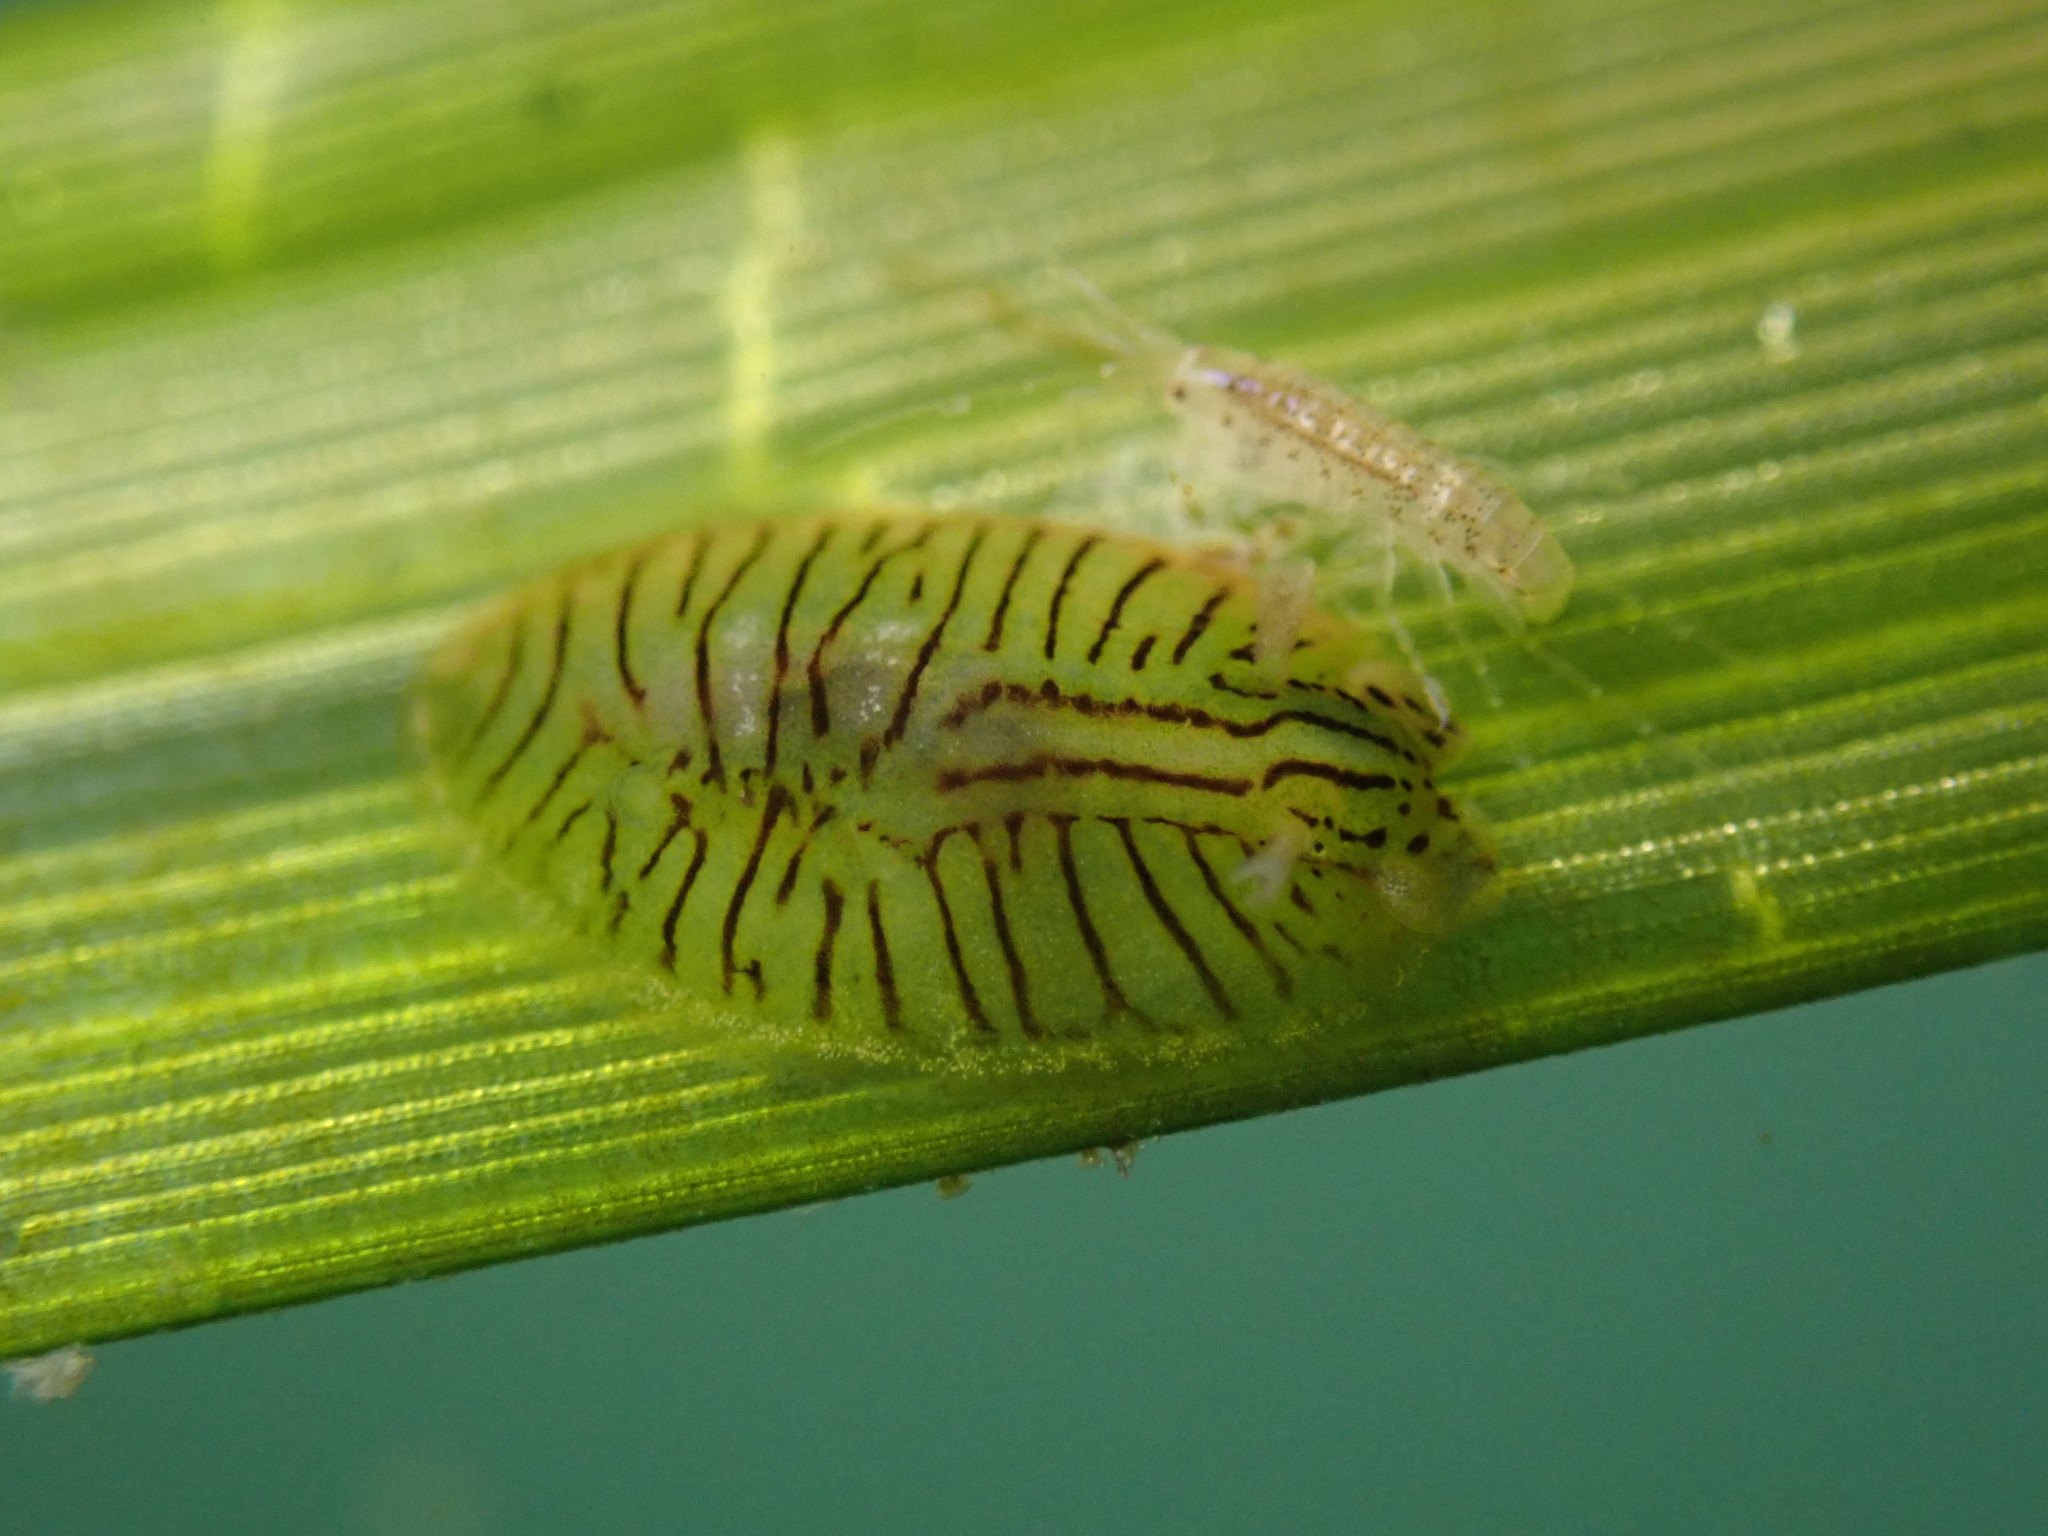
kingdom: Animalia
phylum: Mollusca
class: Gastropoda
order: Aplysiida
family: Aplysiidae
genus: Phyllaplysia
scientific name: Phyllaplysia taylori
